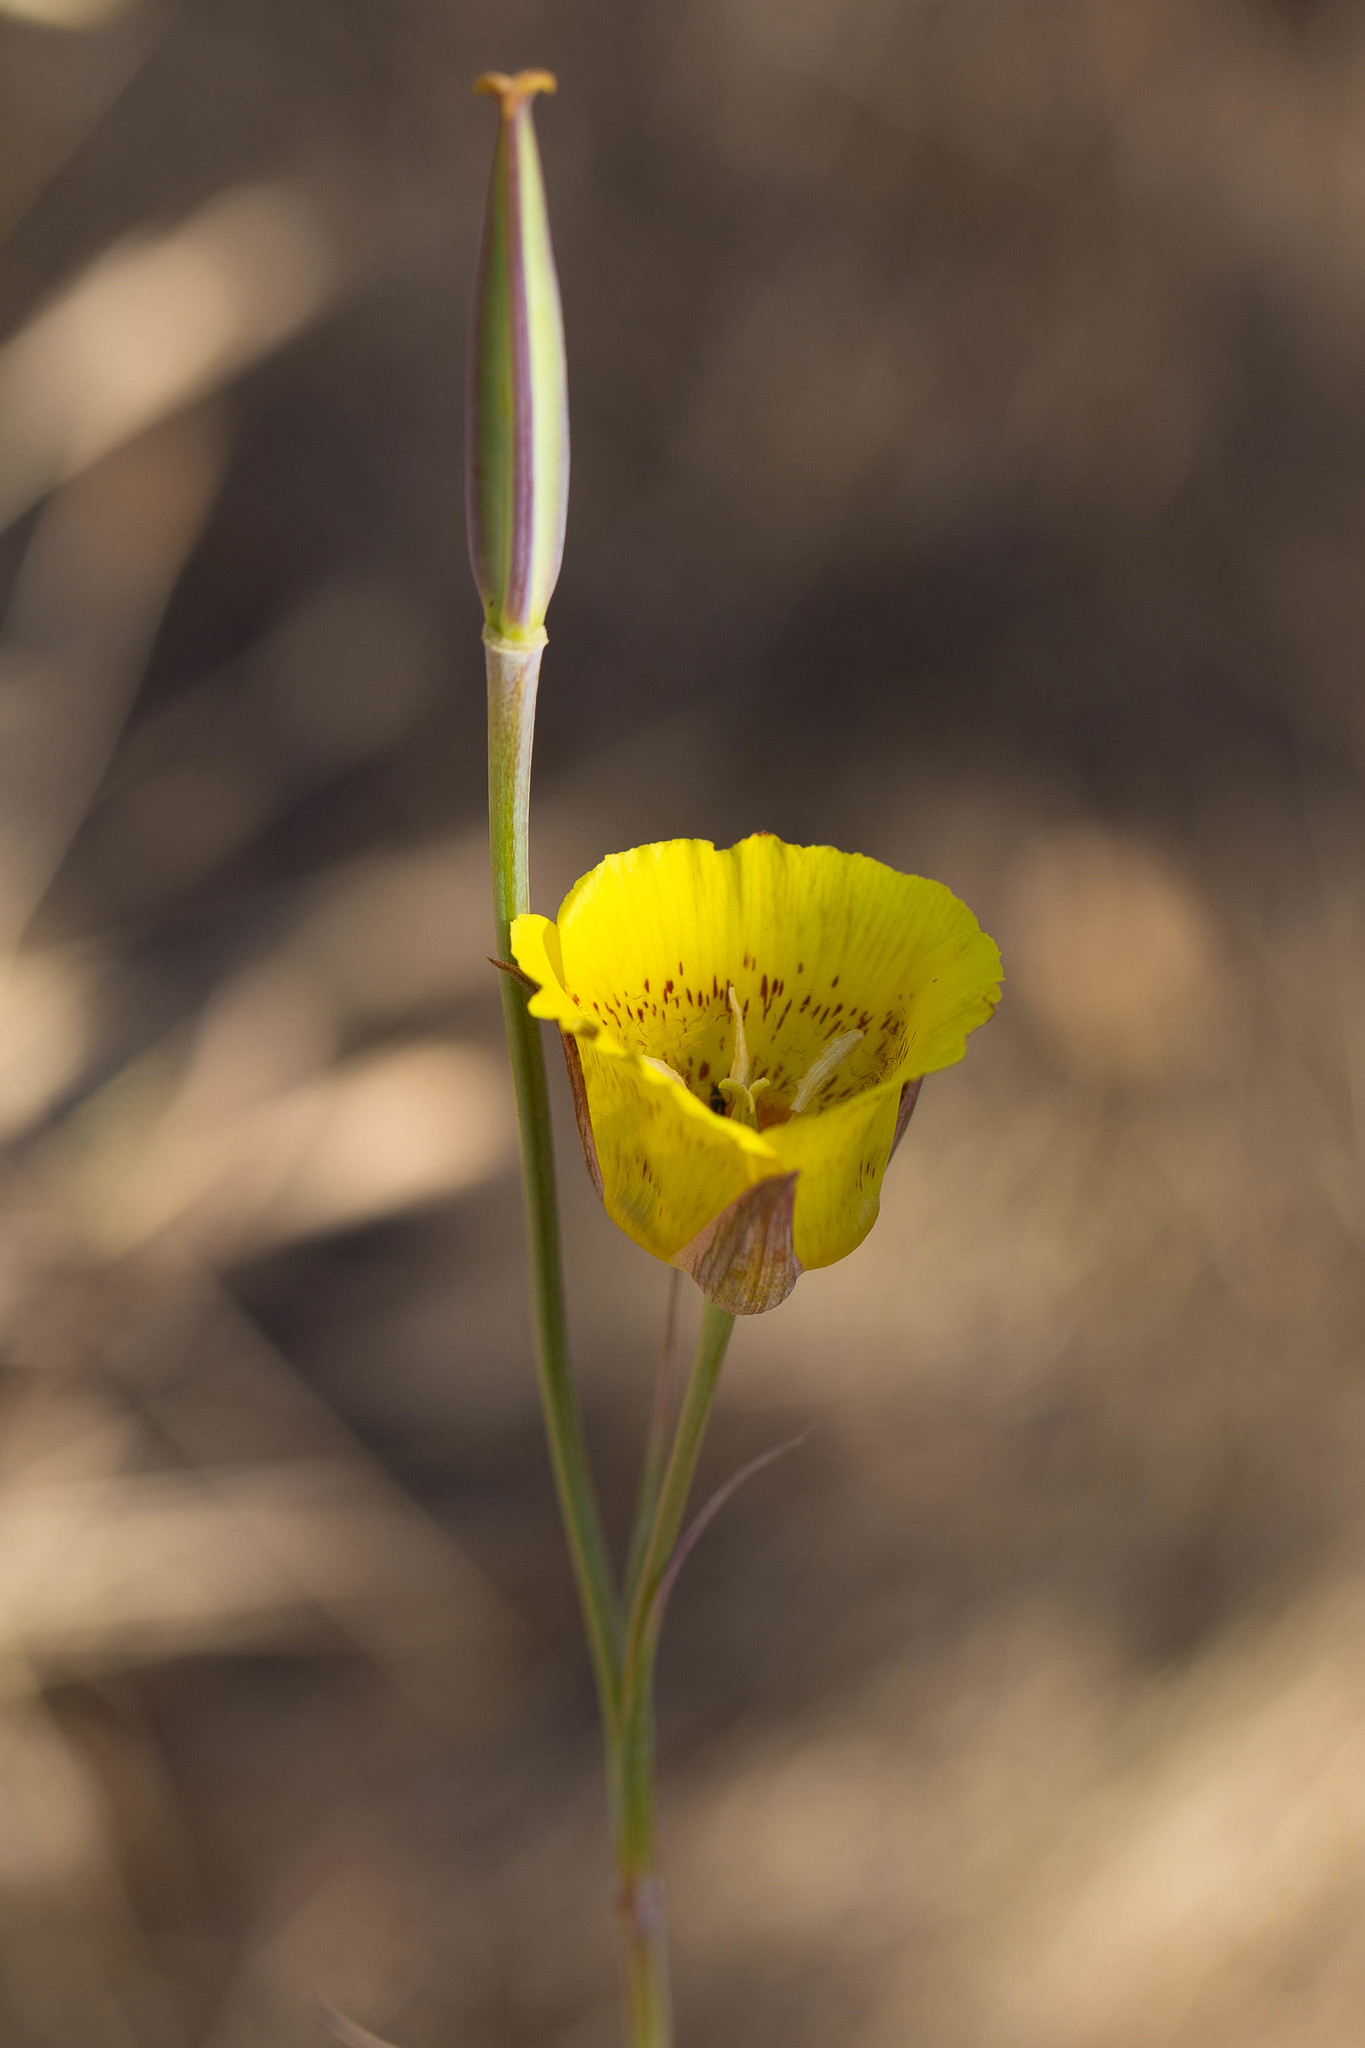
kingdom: Plantae
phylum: Tracheophyta
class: Liliopsida
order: Liliales
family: Liliaceae
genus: Calochortus
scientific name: Calochortus luteus
